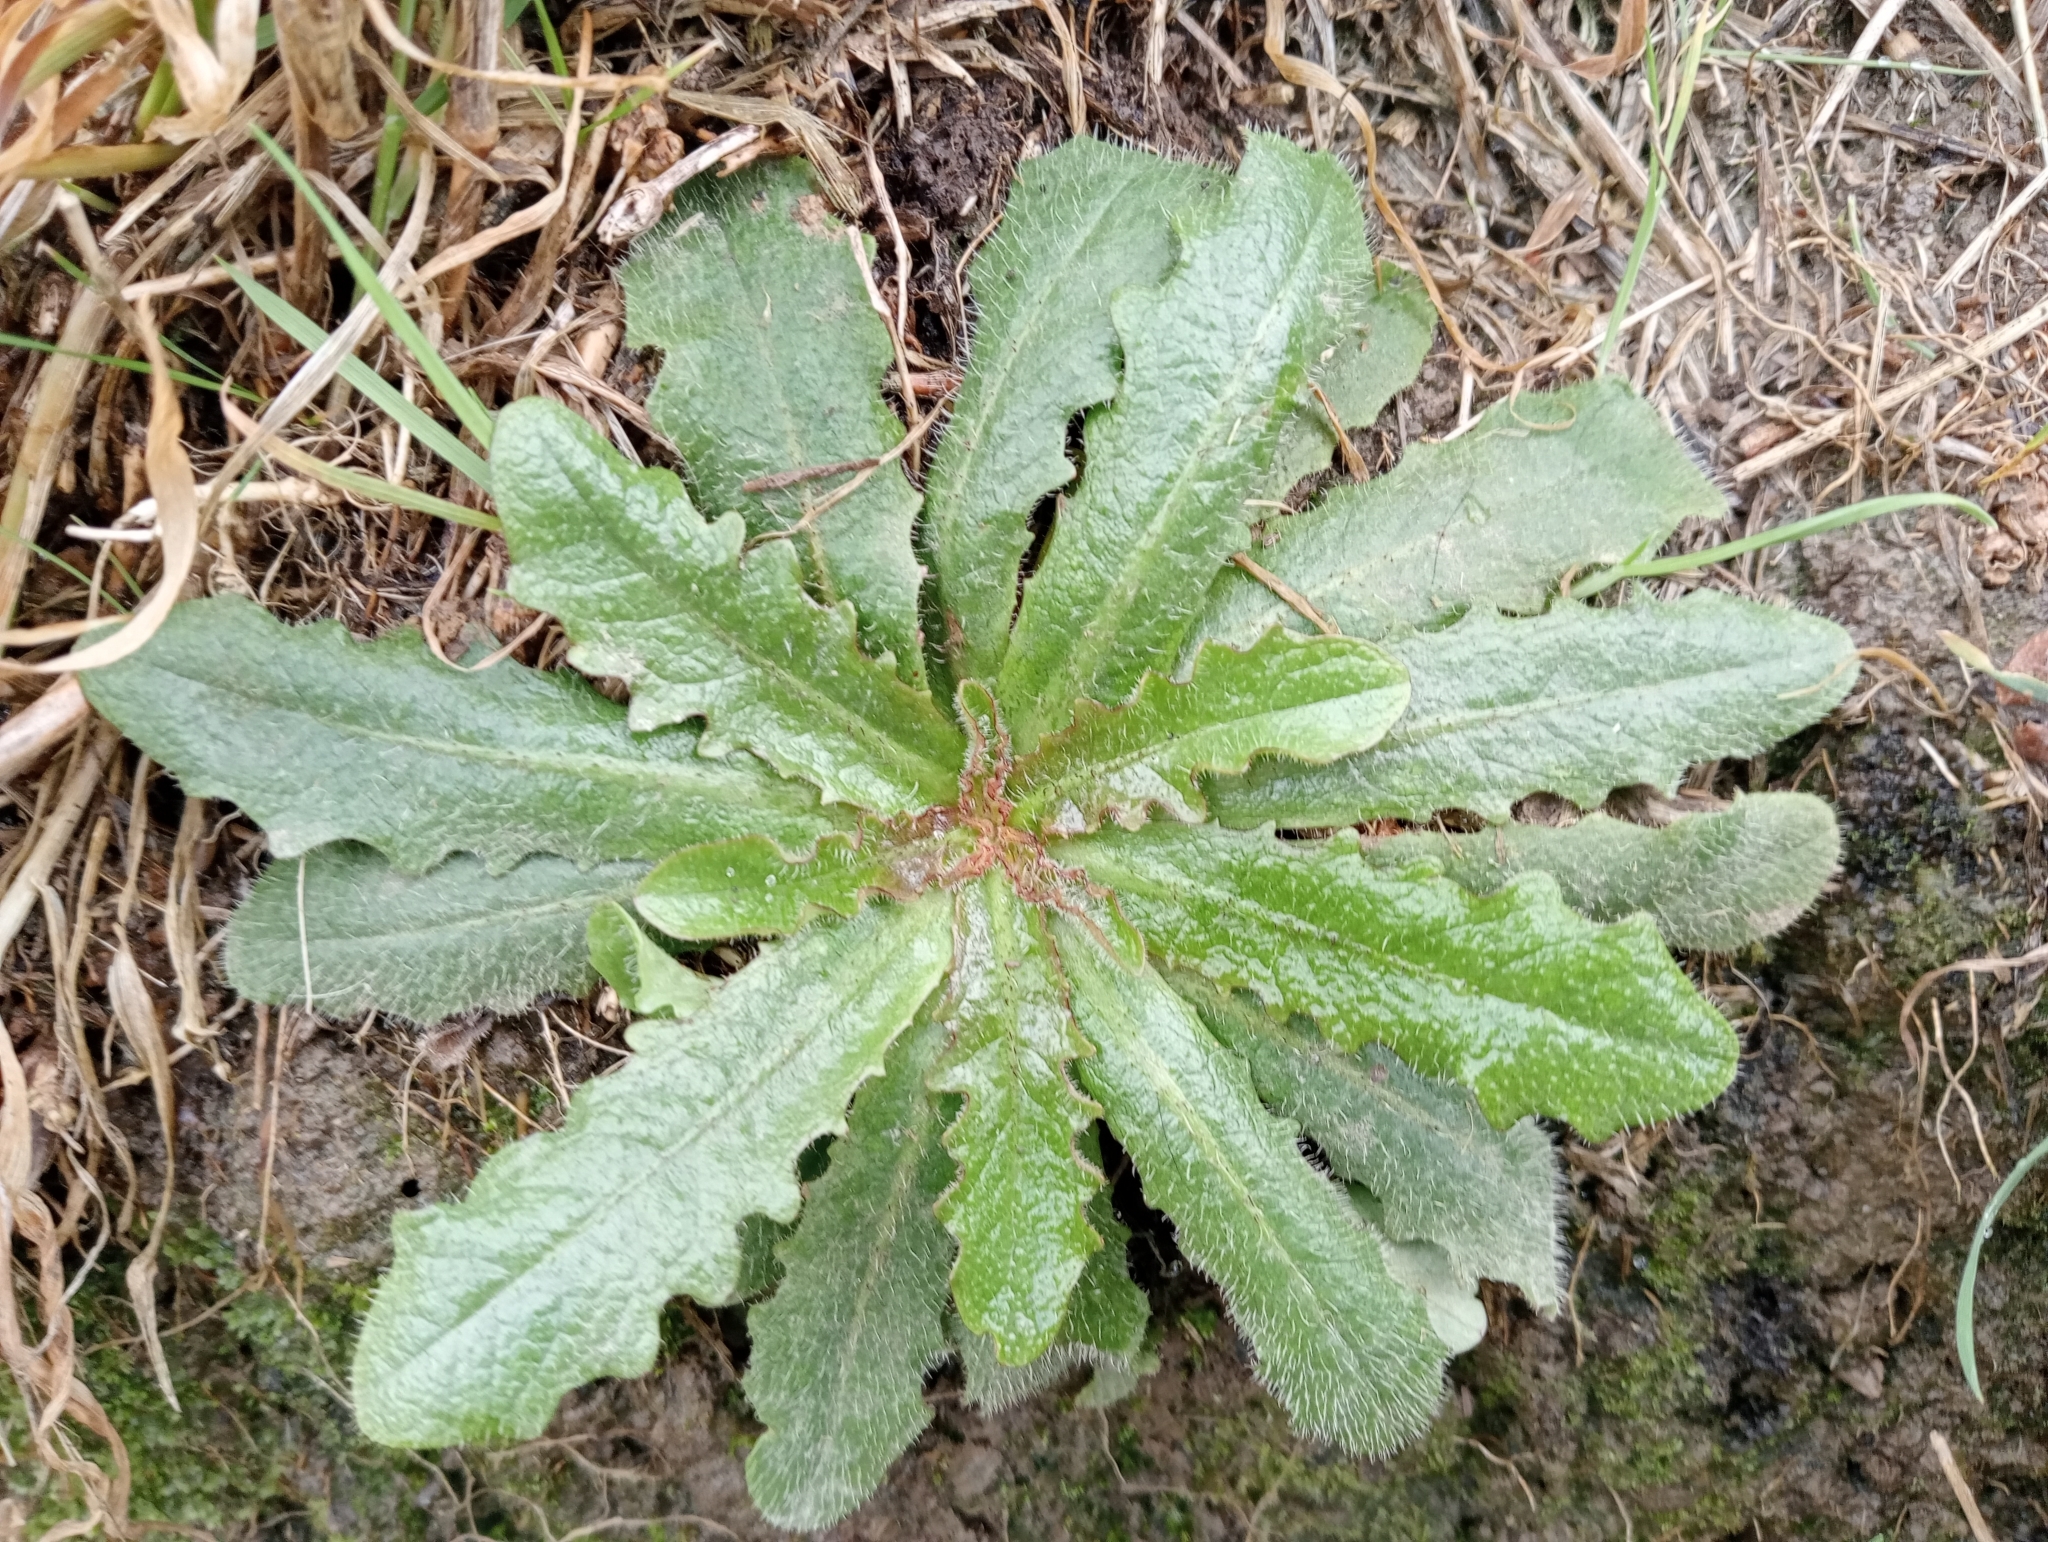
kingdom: Plantae
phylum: Tracheophyta
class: Magnoliopsida
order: Asterales
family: Asteraceae
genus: Hypochaeris
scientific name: Hypochaeris radicata
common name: Flatweed
